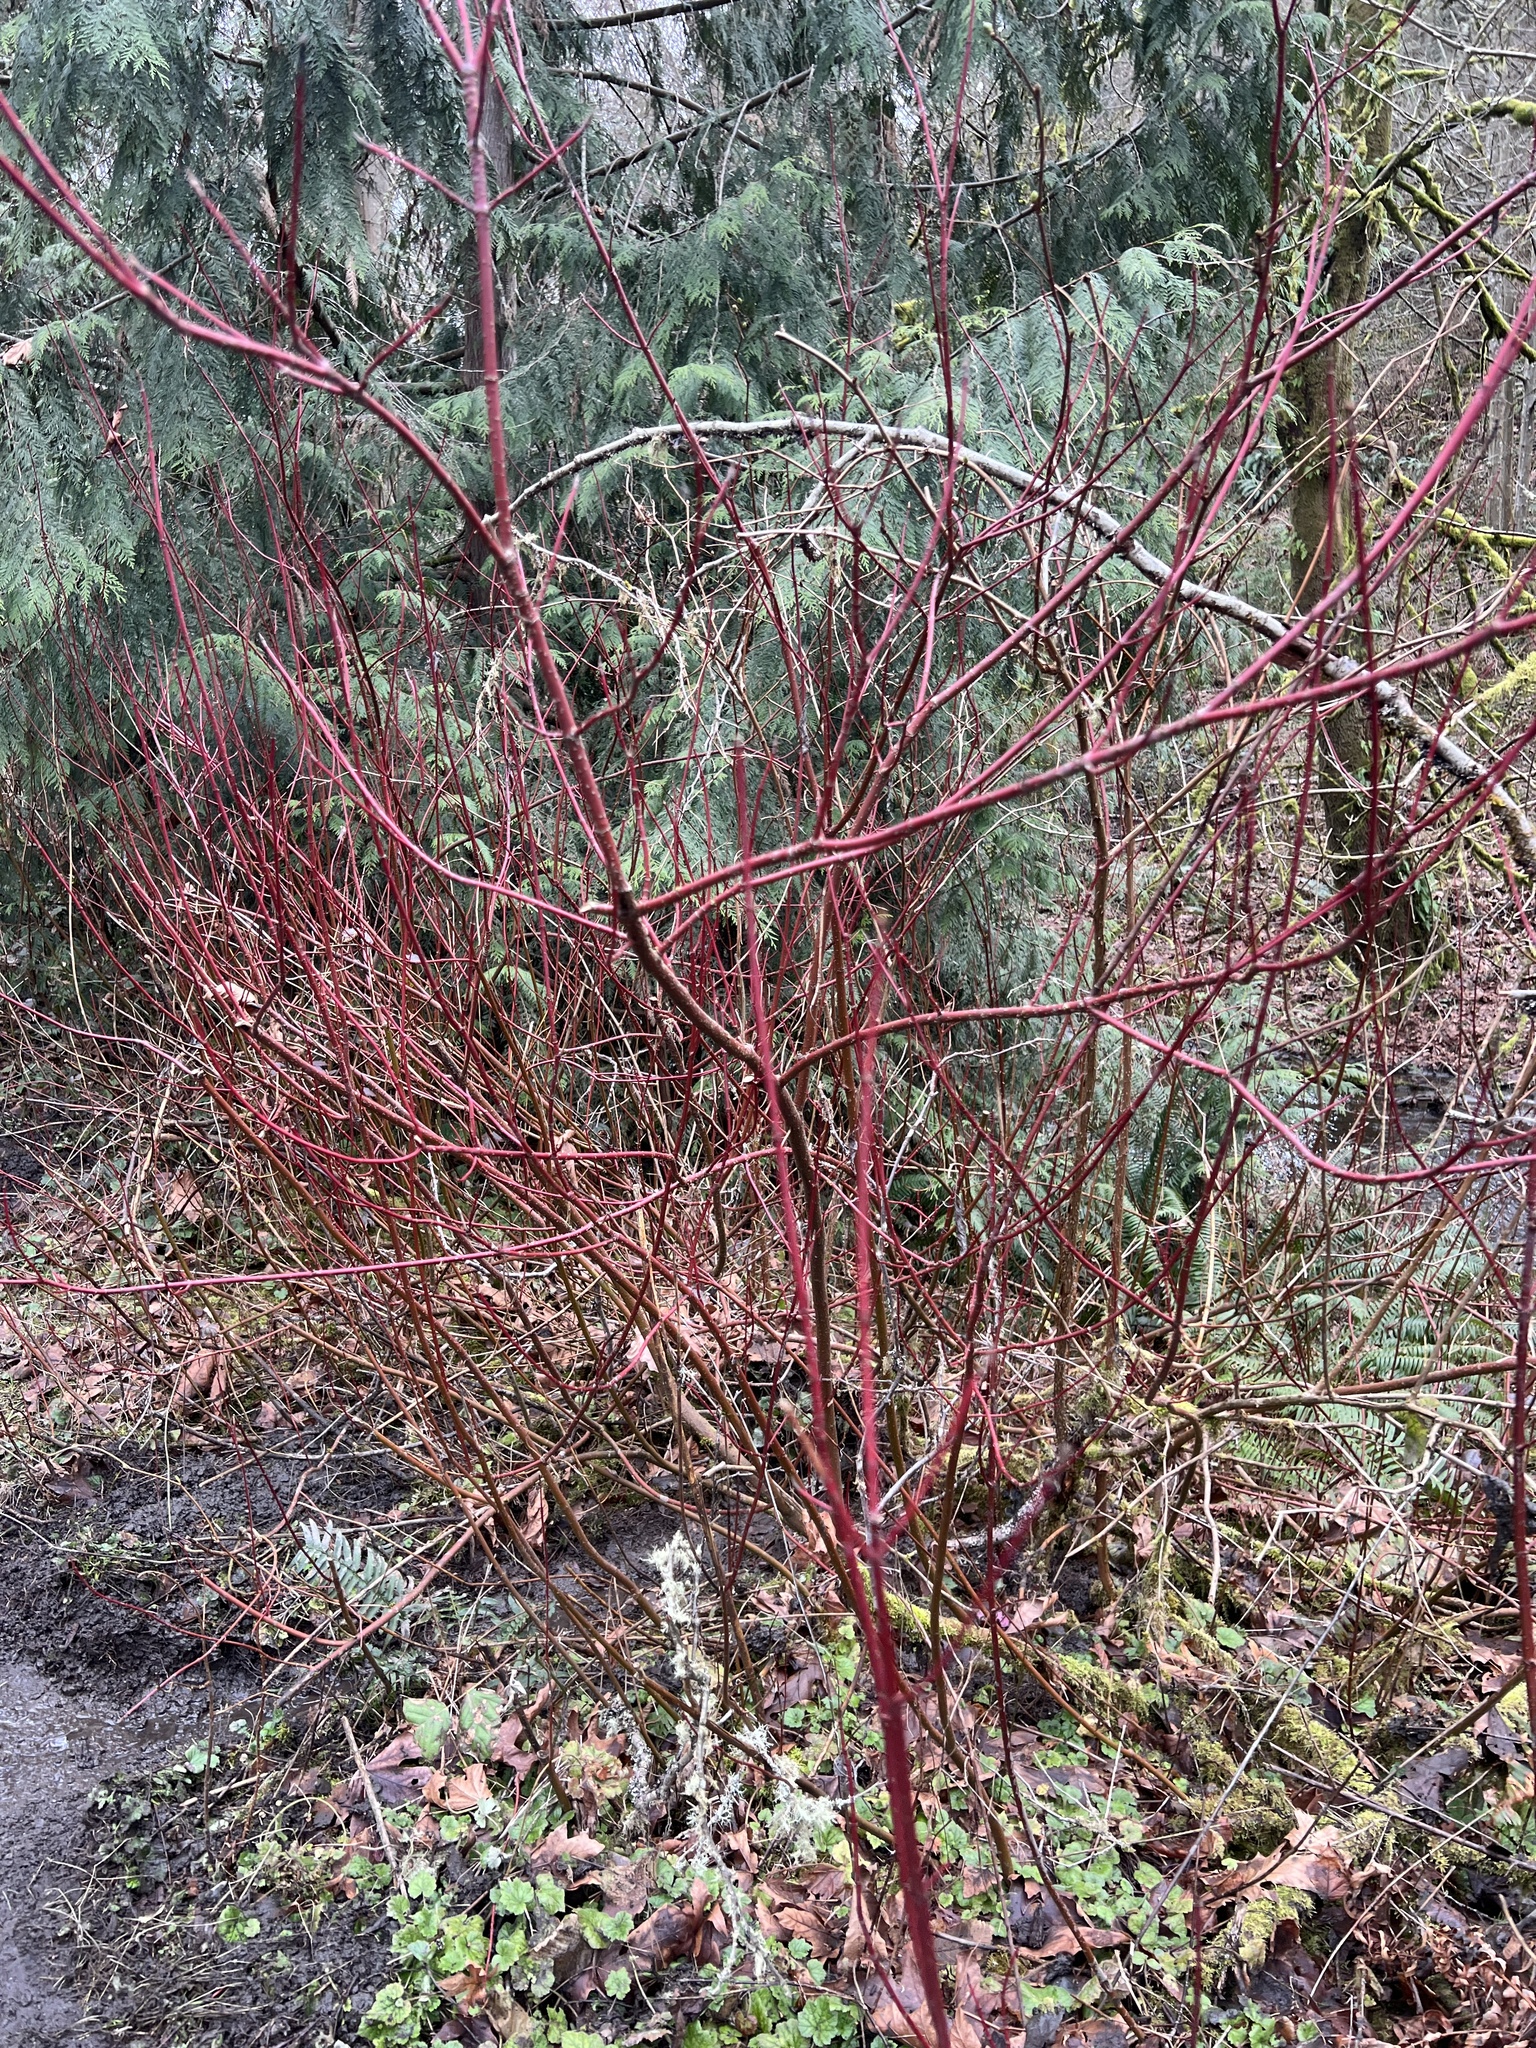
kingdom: Plantae
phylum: Tracheophyta
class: Magnoliopsida
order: Cornales
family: Cornaceae
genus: Cornus
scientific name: Cornus sericea
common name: Red-osier dogwood
